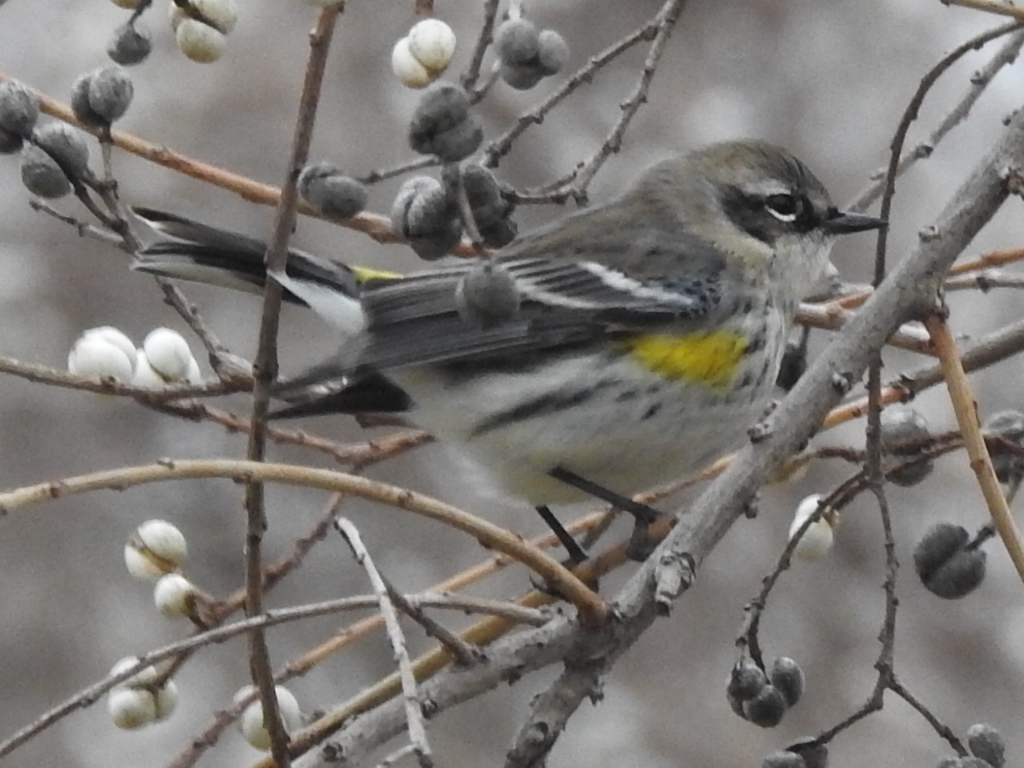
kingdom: Animalia
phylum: Chordata
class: Aves
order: Passeriformes
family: Parulidae
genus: Setophaga
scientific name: Setophaga coronata
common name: Myrtle warbler
